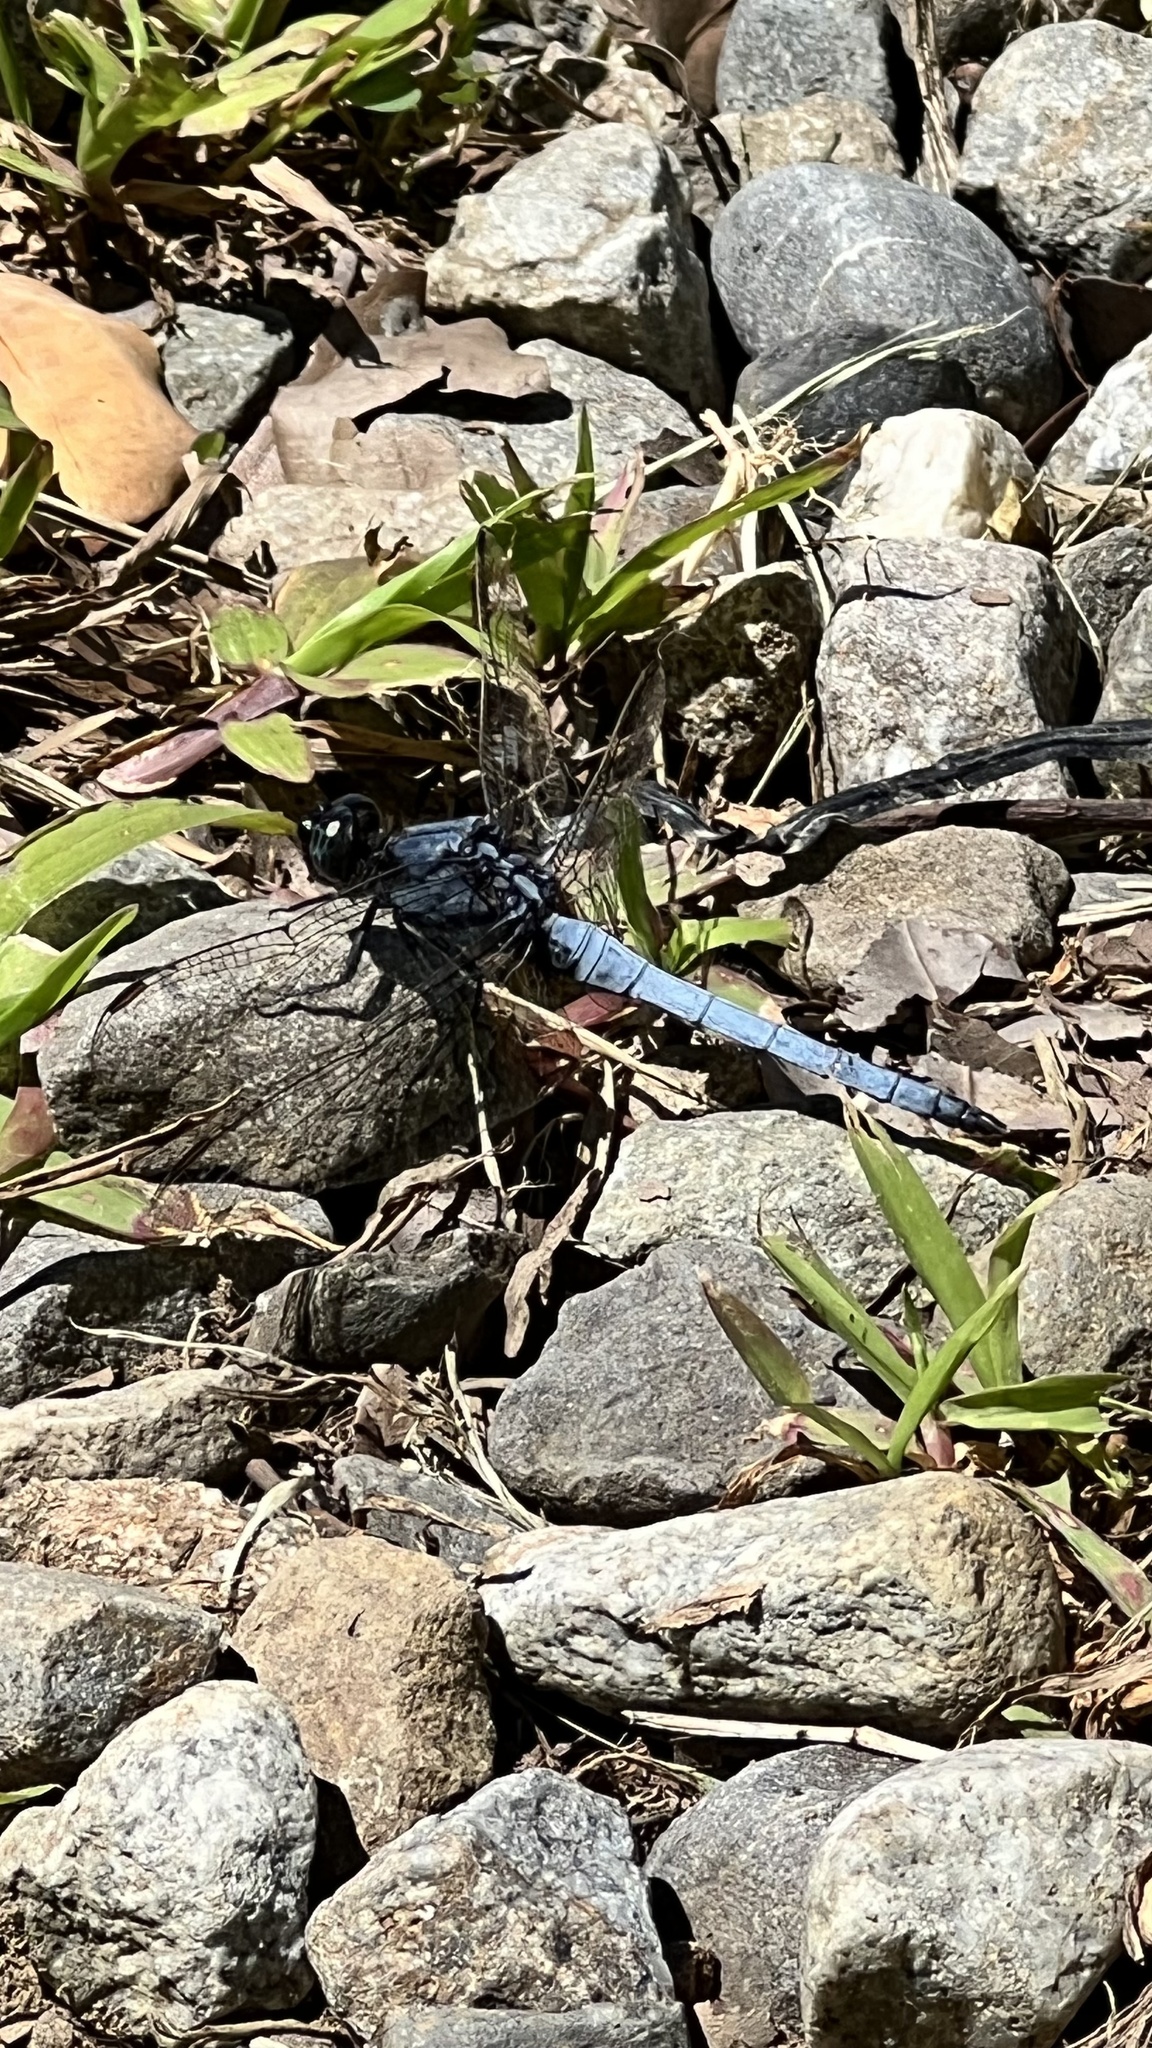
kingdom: Animalia
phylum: Arthropoda
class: Insecta
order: Odonata
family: Libellulidae
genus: Orthetrum
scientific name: Orthetrum glaucum
